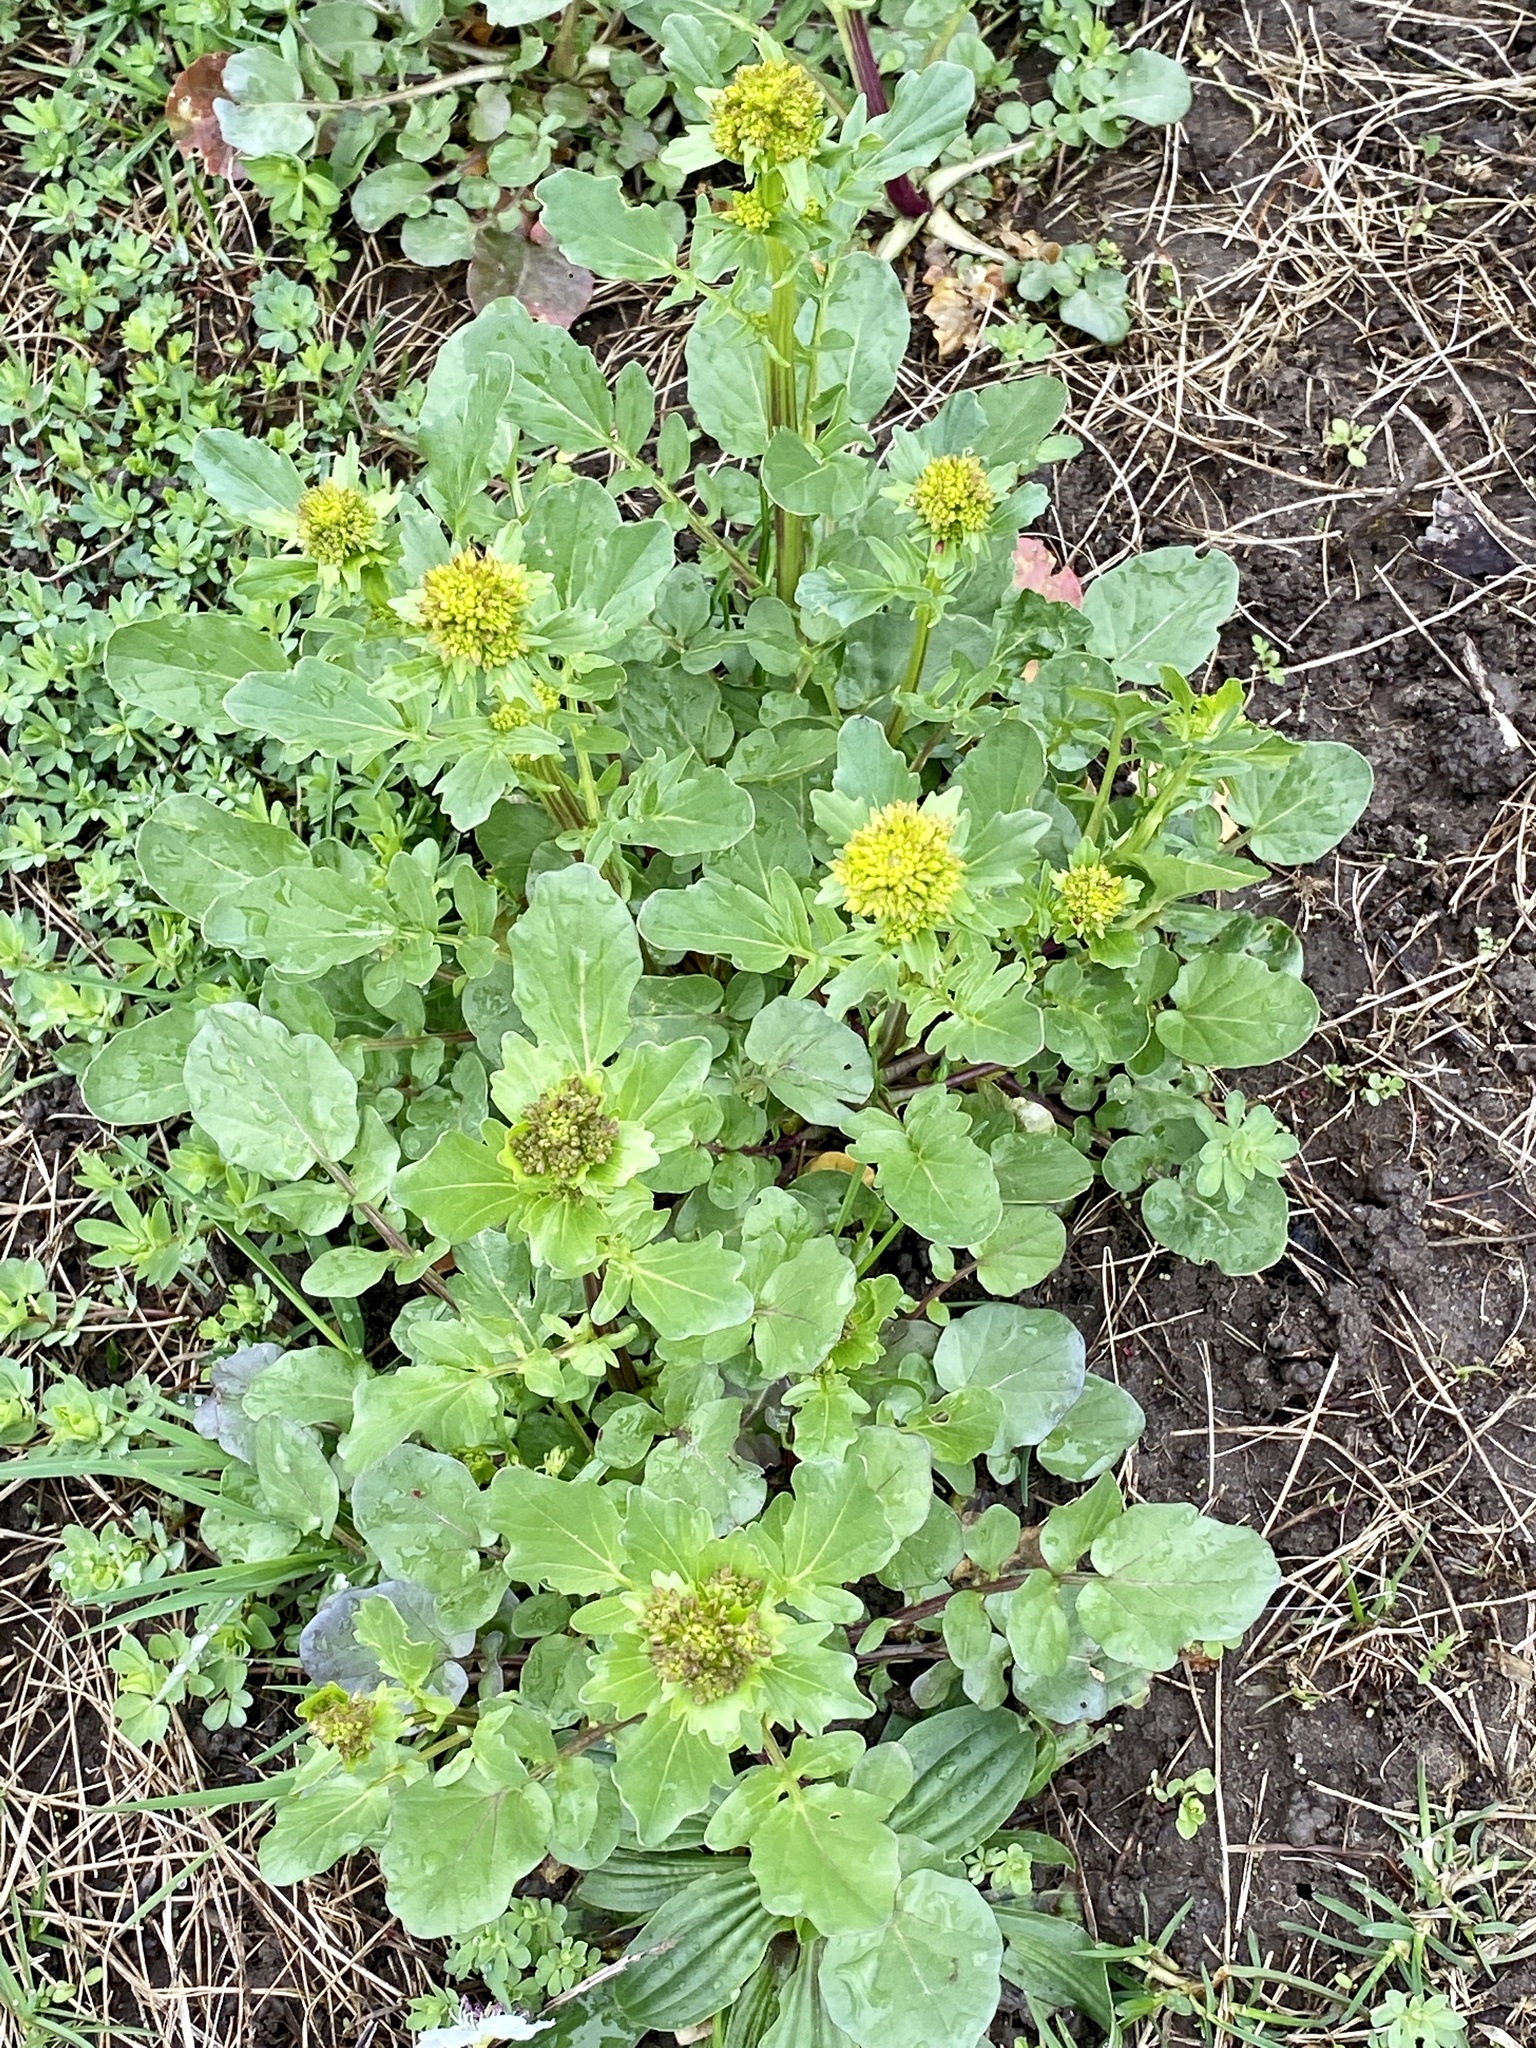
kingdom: Plantae
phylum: Tracheophyta
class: Magnoliopsida
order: Brassicales
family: Brassicaceae
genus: Barbarea
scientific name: Barbarea vulgaris
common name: Cressy-greens
